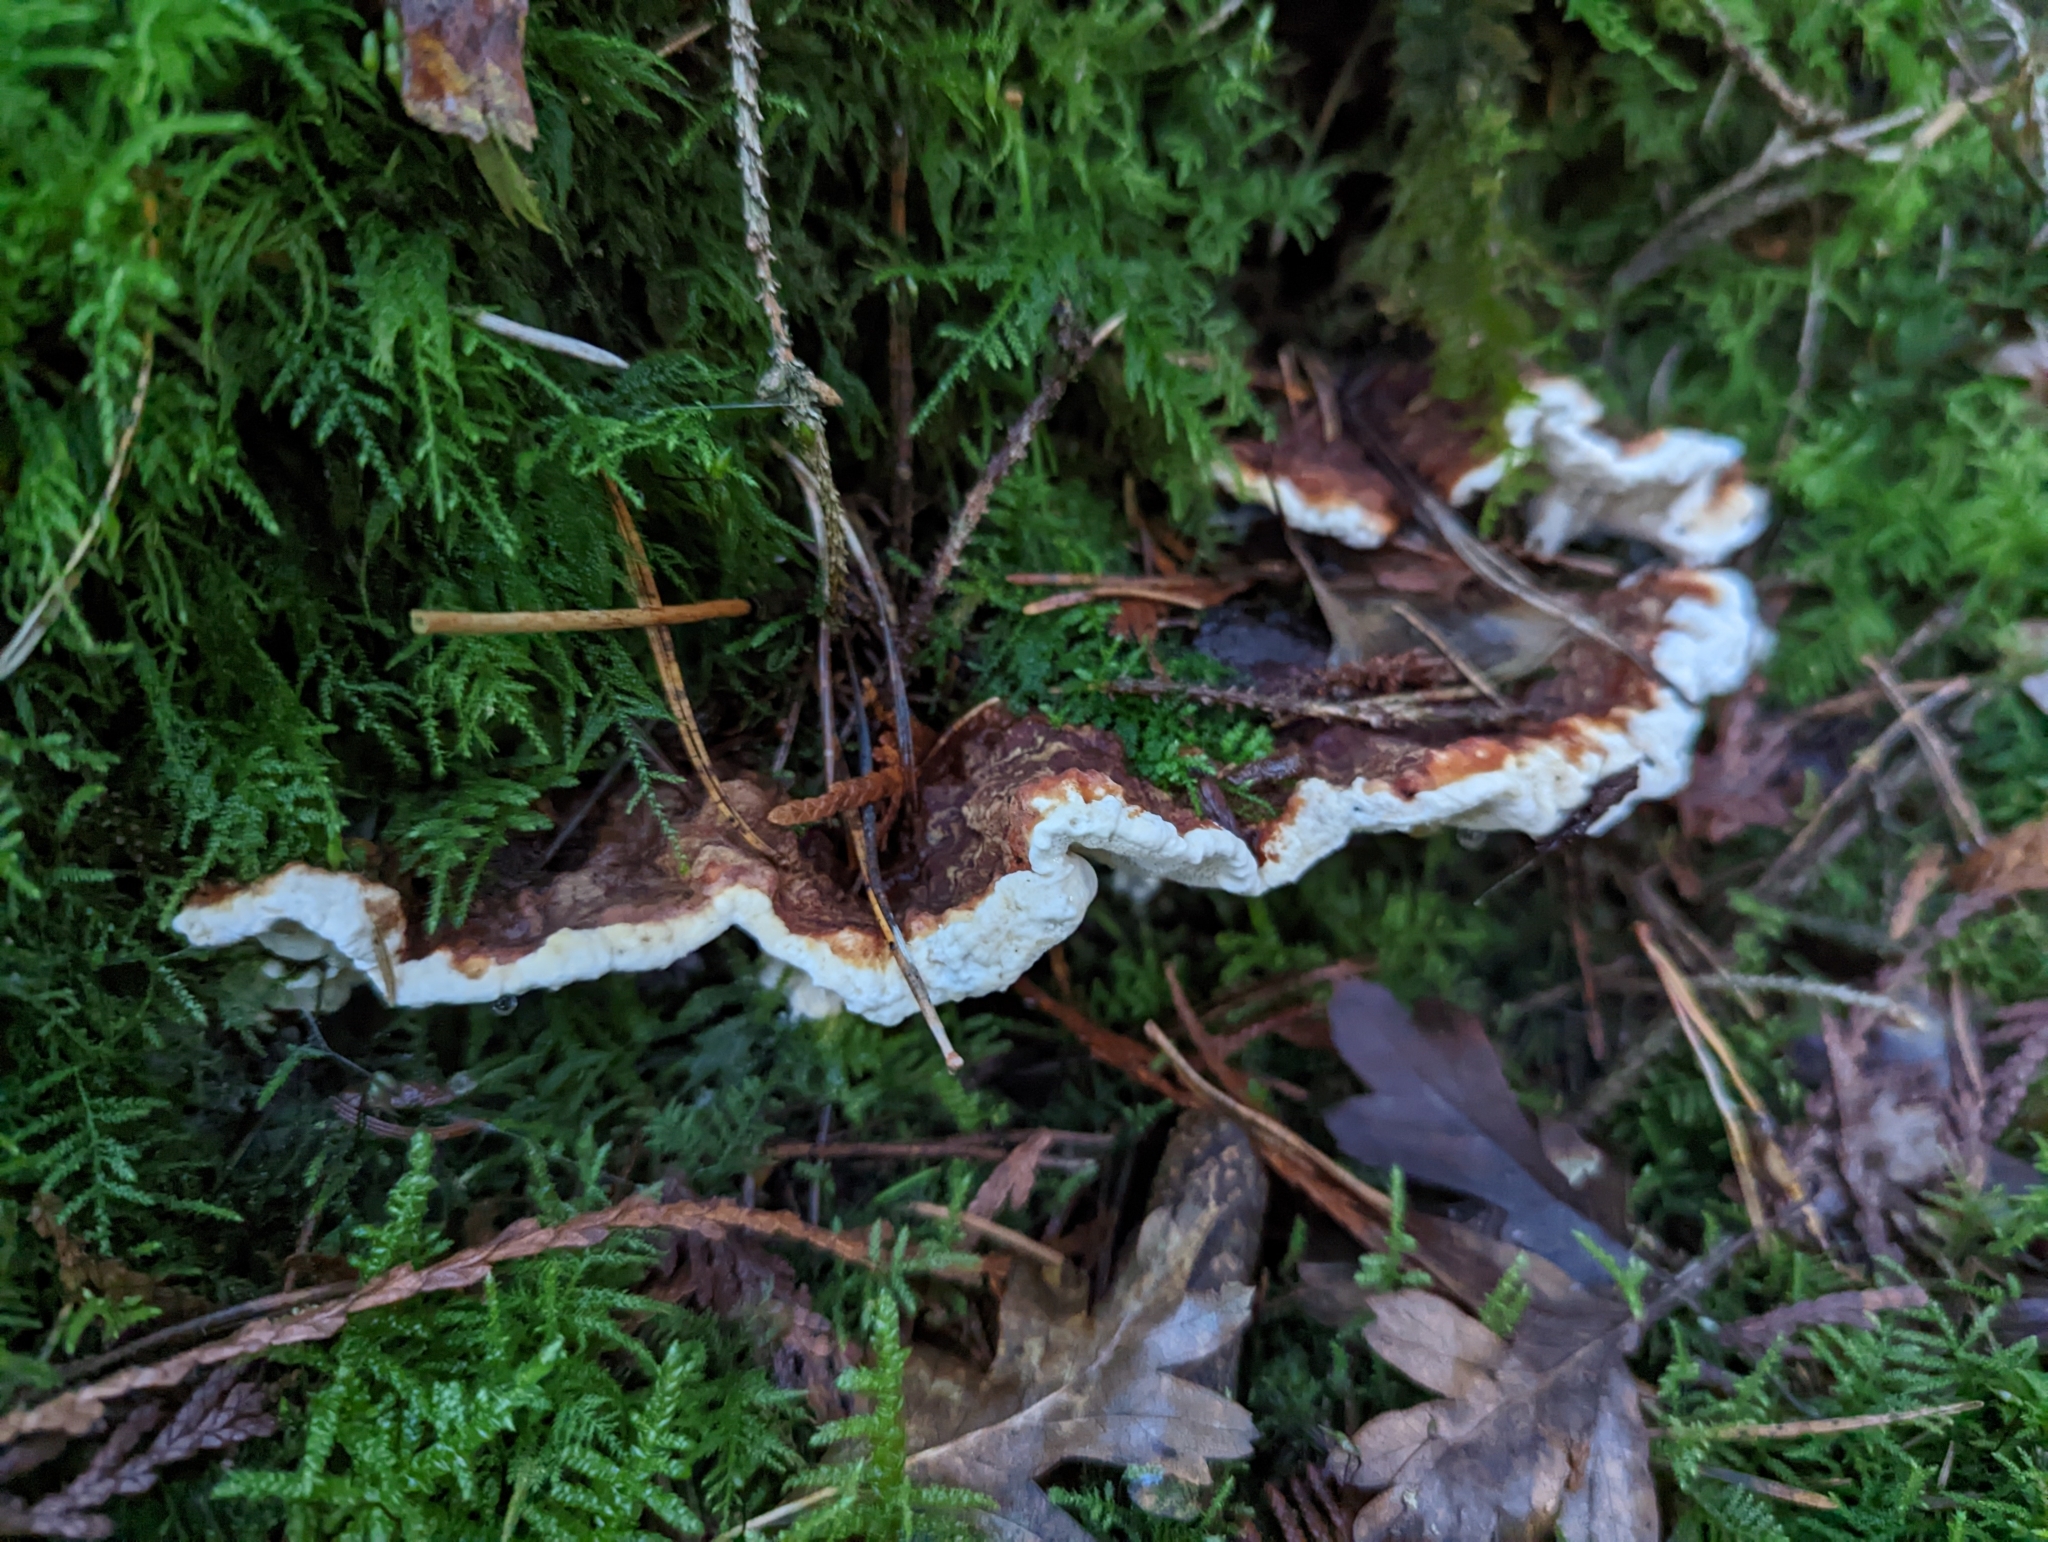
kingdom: Fungi
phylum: Basidiomycota
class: Agaricomycetes
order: Russulales
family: Bondarzewiaceae
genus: Heterobasidion
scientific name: Heterobasidion annosum
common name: Root rot
